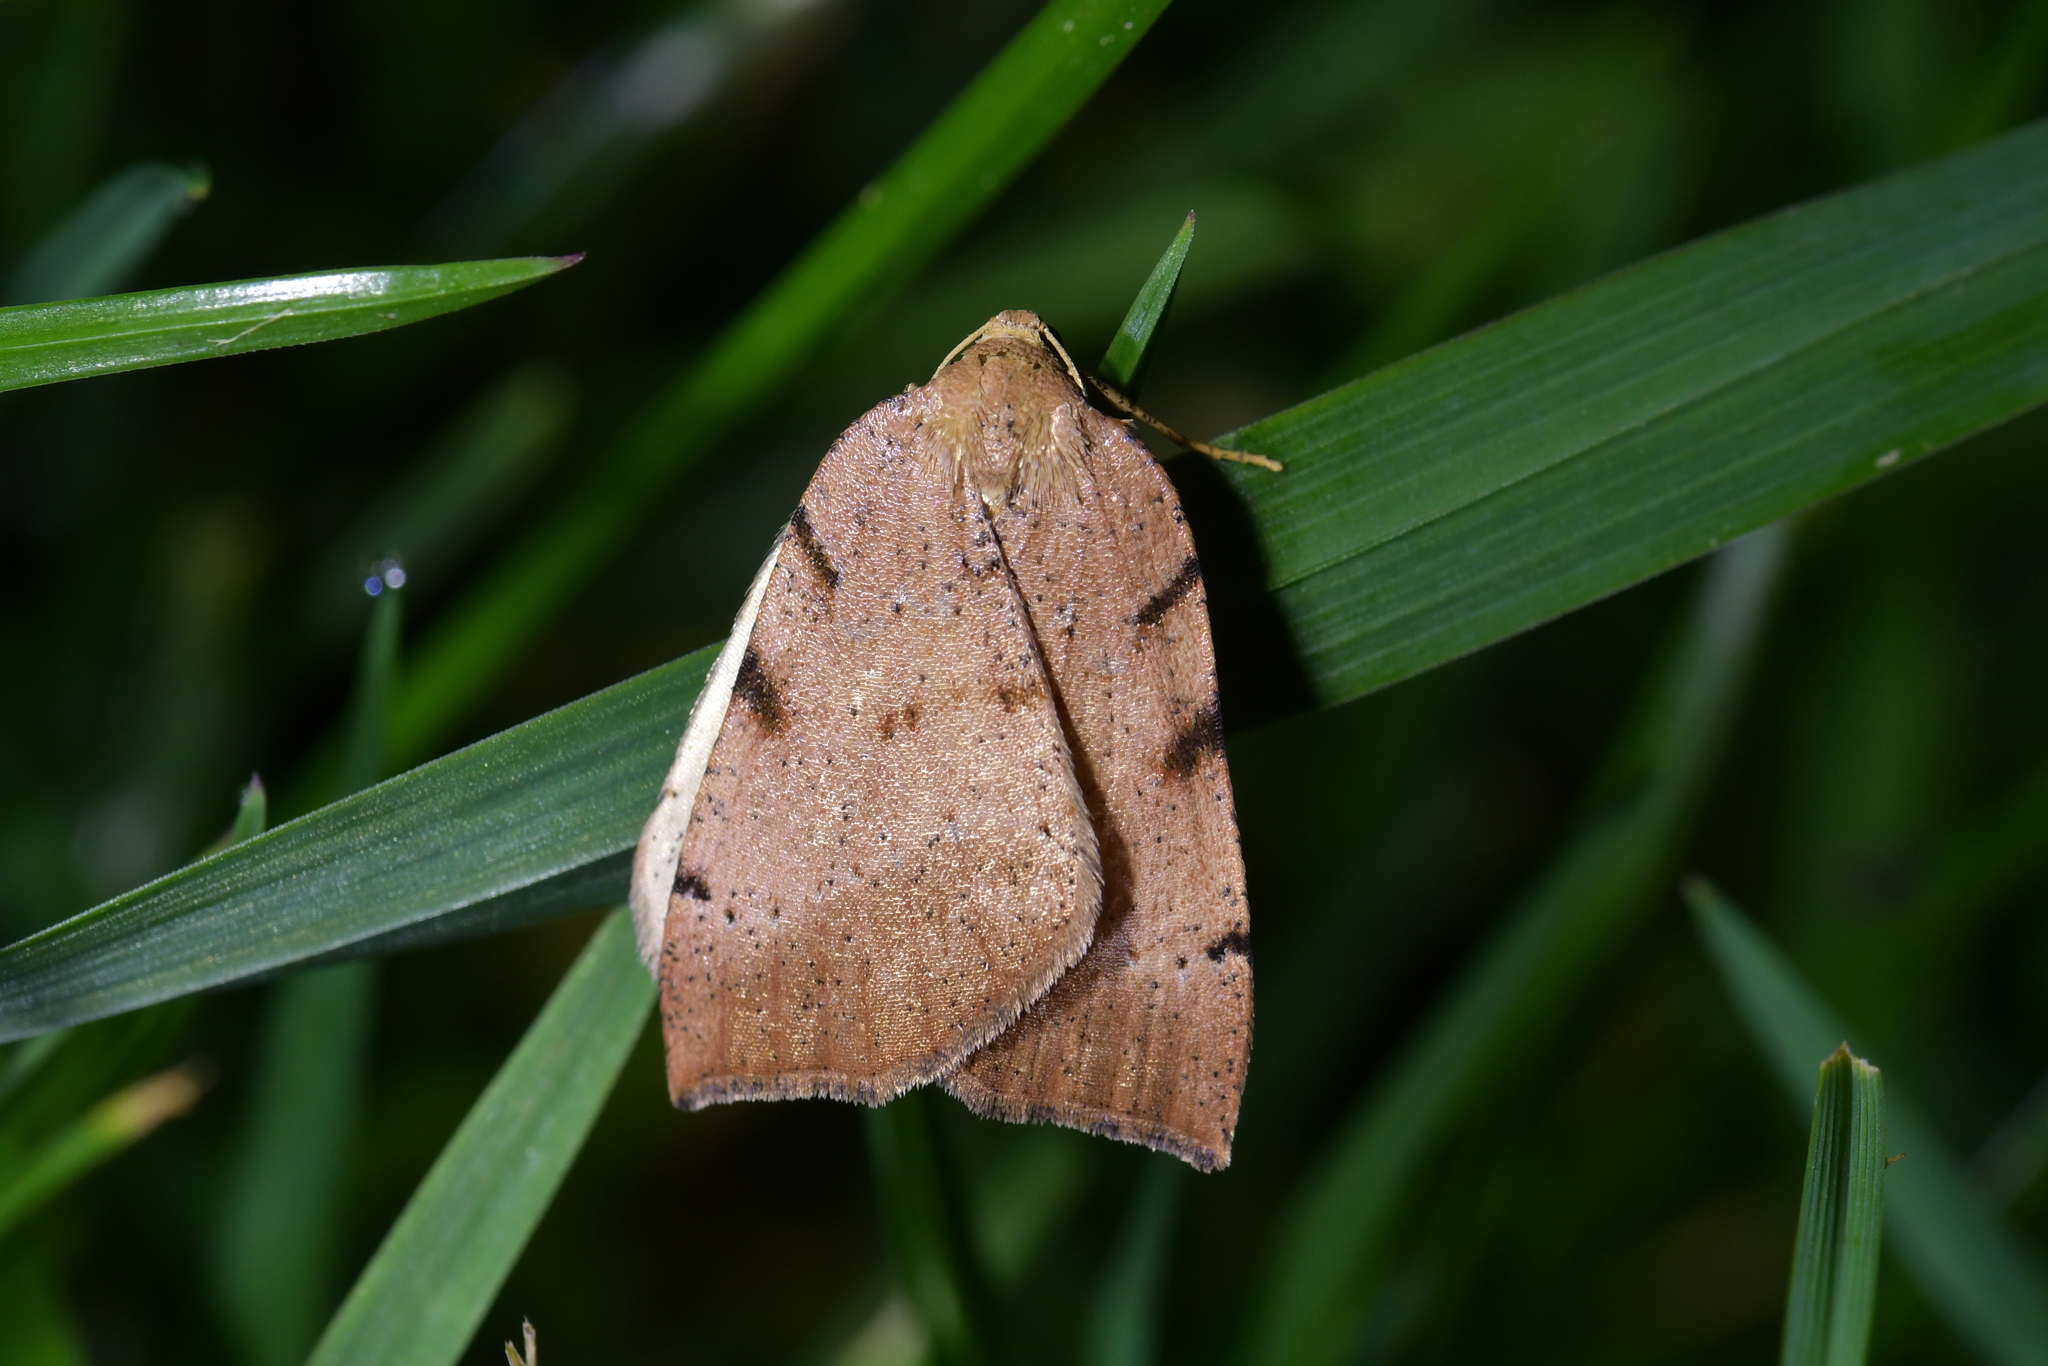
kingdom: Animalia
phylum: Arthropoda
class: Insecta
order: Lepidoptera
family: Geometridae
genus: Sestra
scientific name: Sestra humeraria
